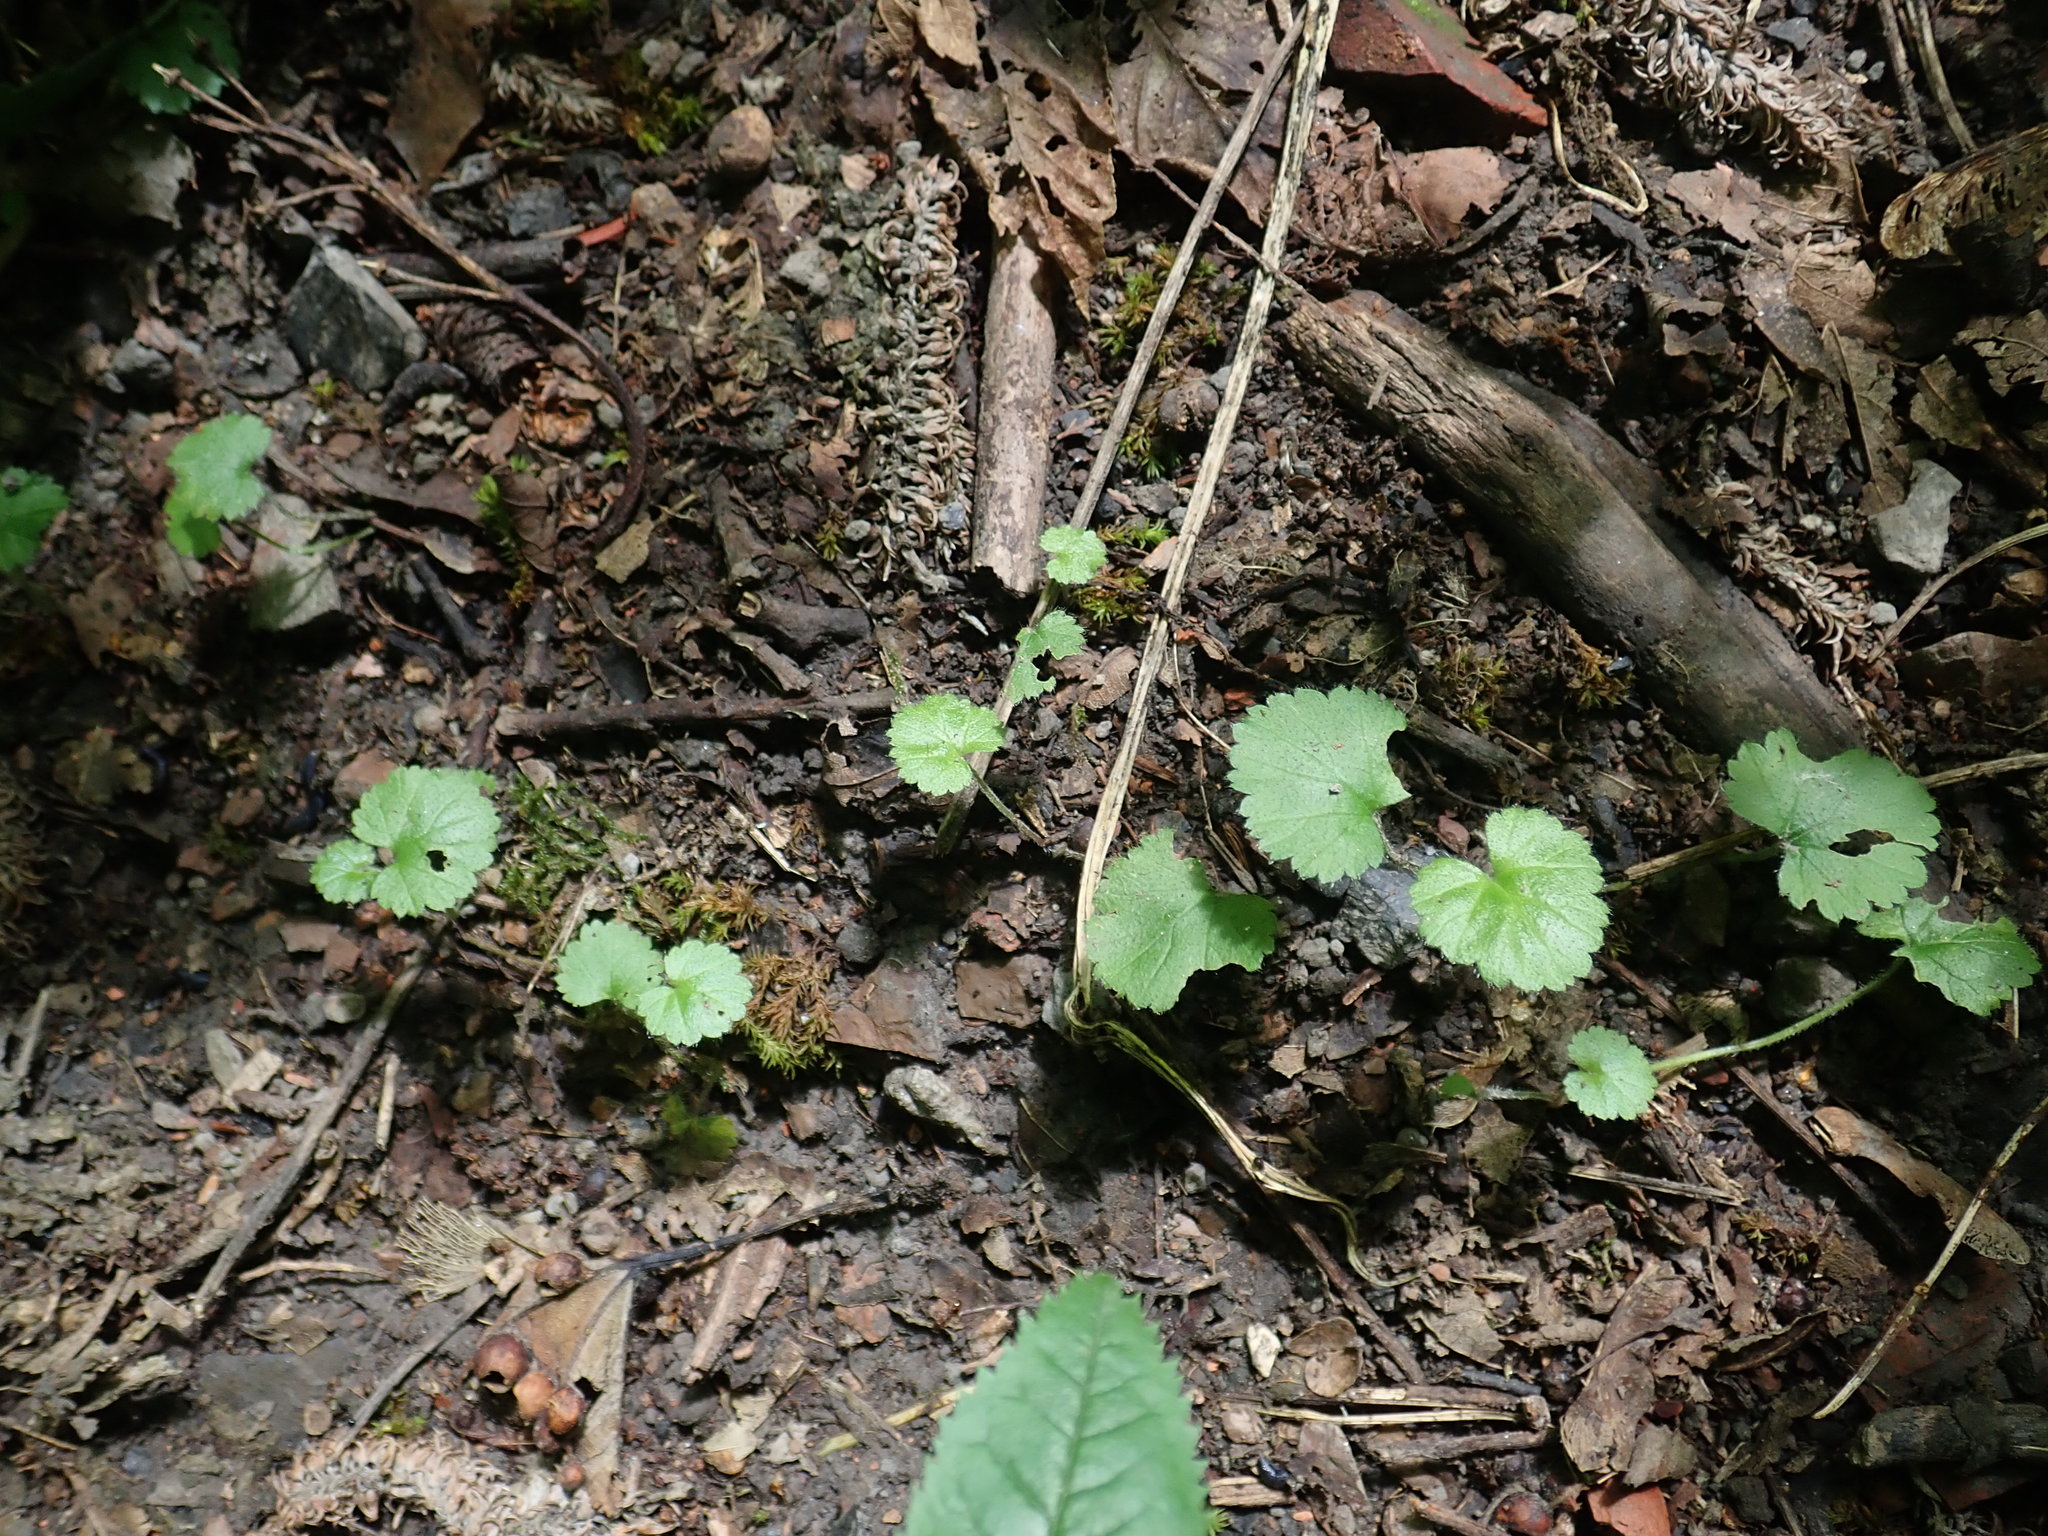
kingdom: Plantae
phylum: Tracheophyta
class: Magnoliopsida
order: Lamiales
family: Lamiaceae
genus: Glechoma
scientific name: Glechoma hederacea
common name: Ground ivy
